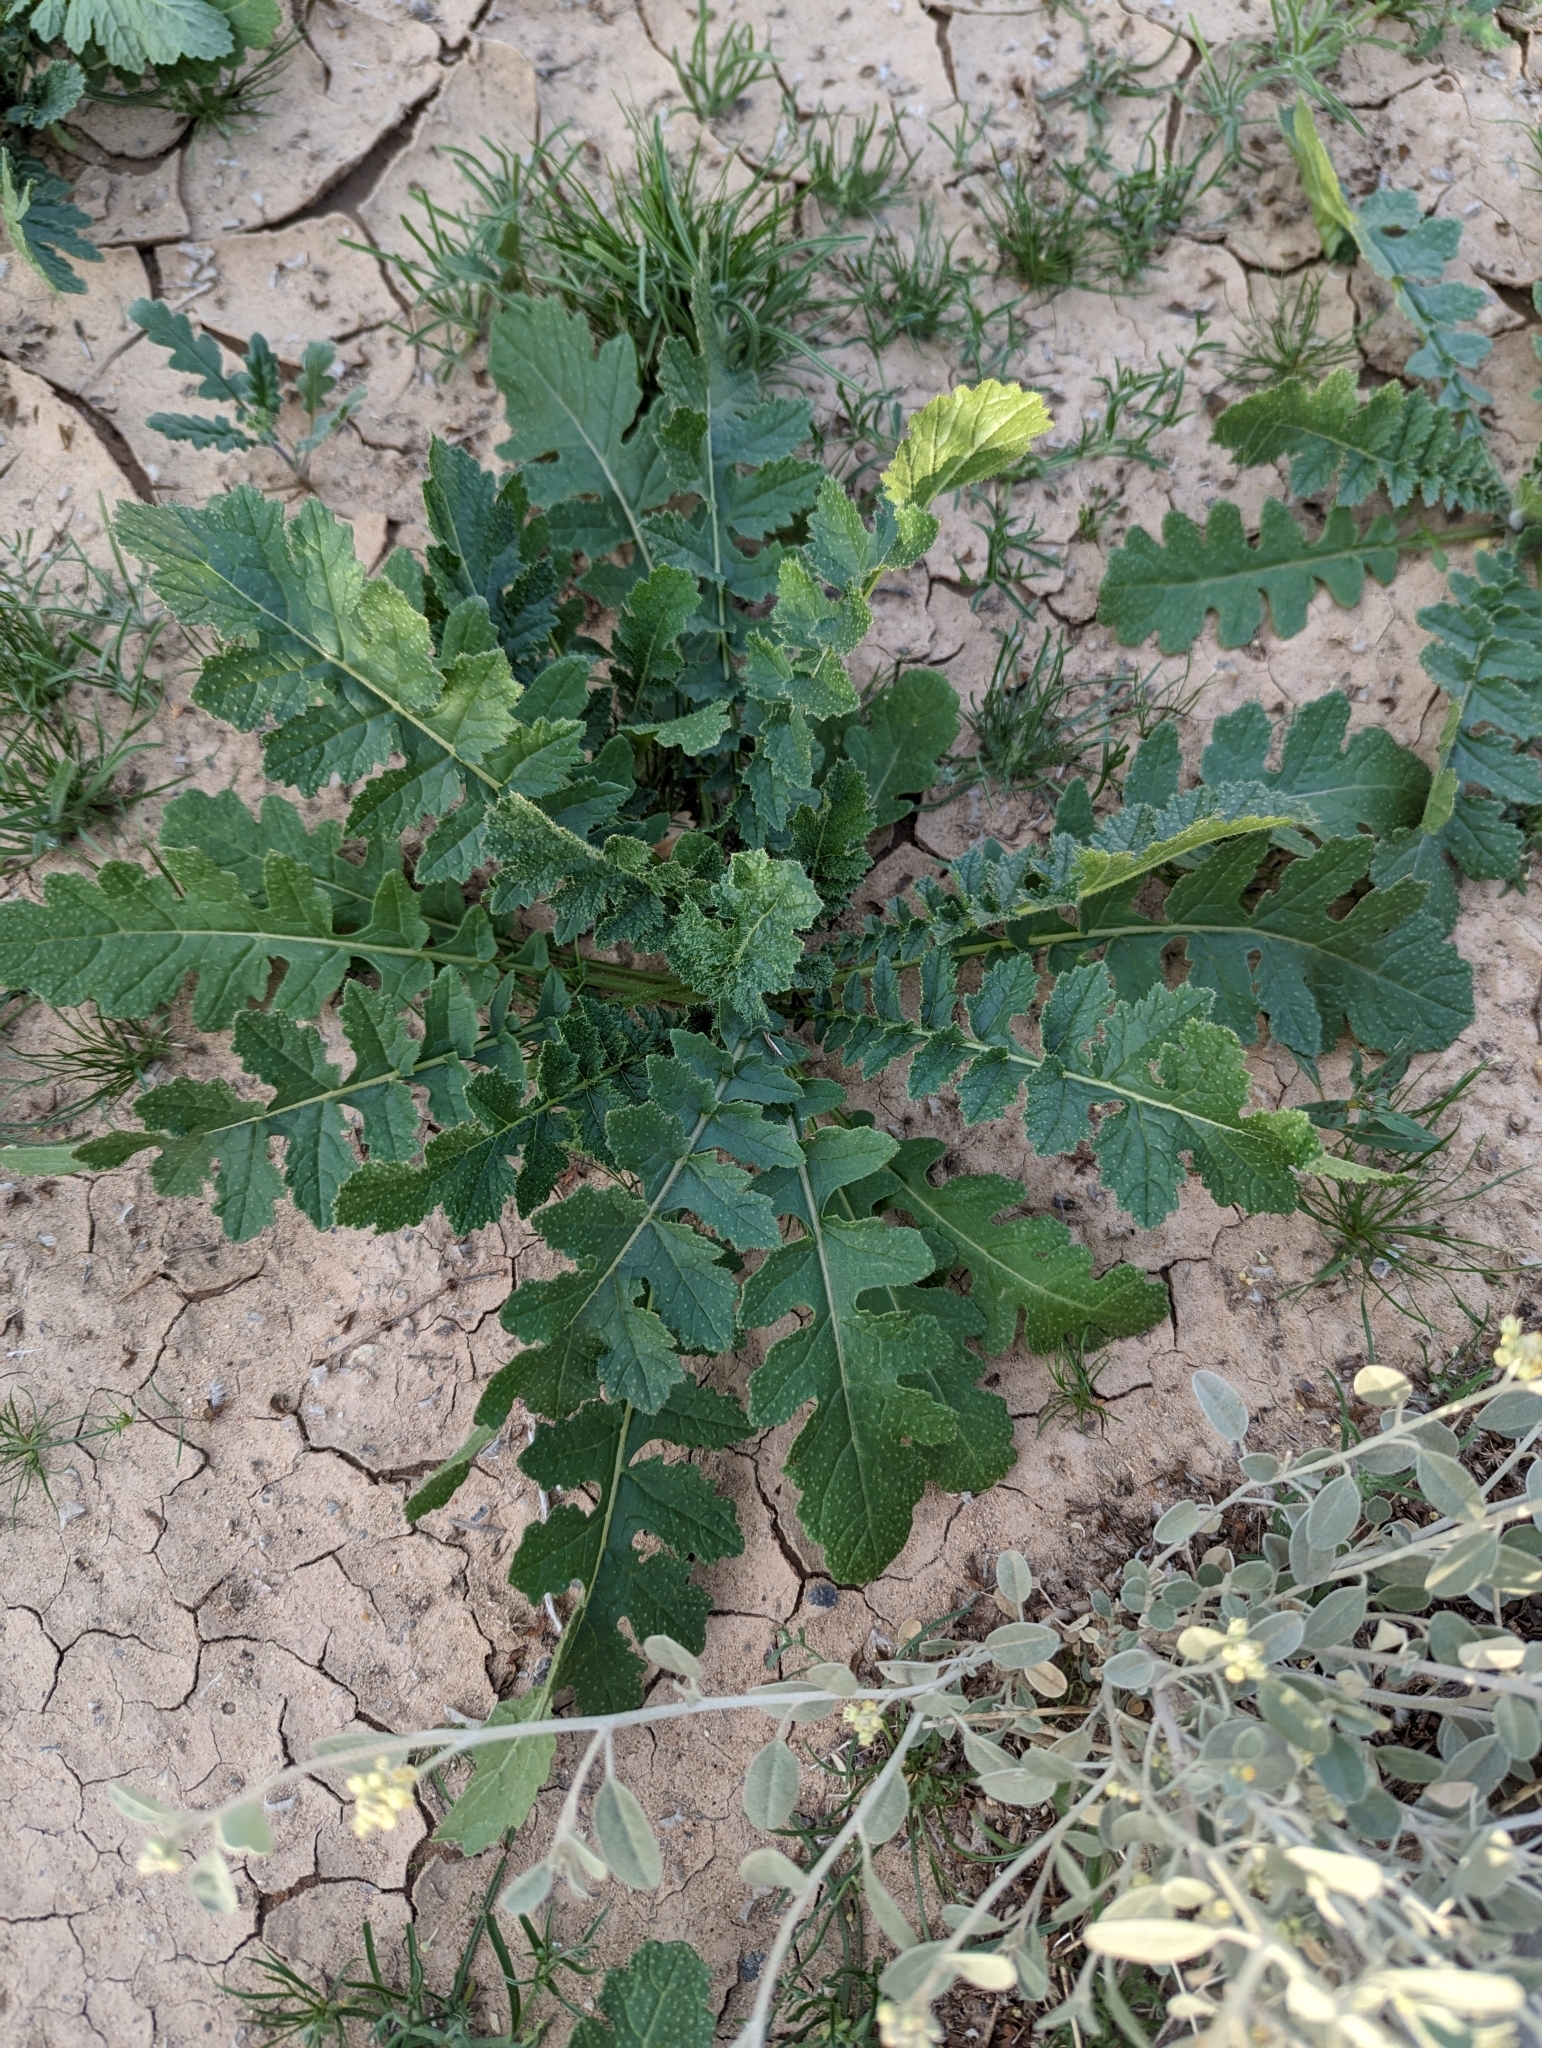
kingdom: Plantae
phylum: Tracheophyta
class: Magnoliopsida
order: Brassicales
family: Brassicaceae
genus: Brassica
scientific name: Brassica tournefortii
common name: Pale cabbage
